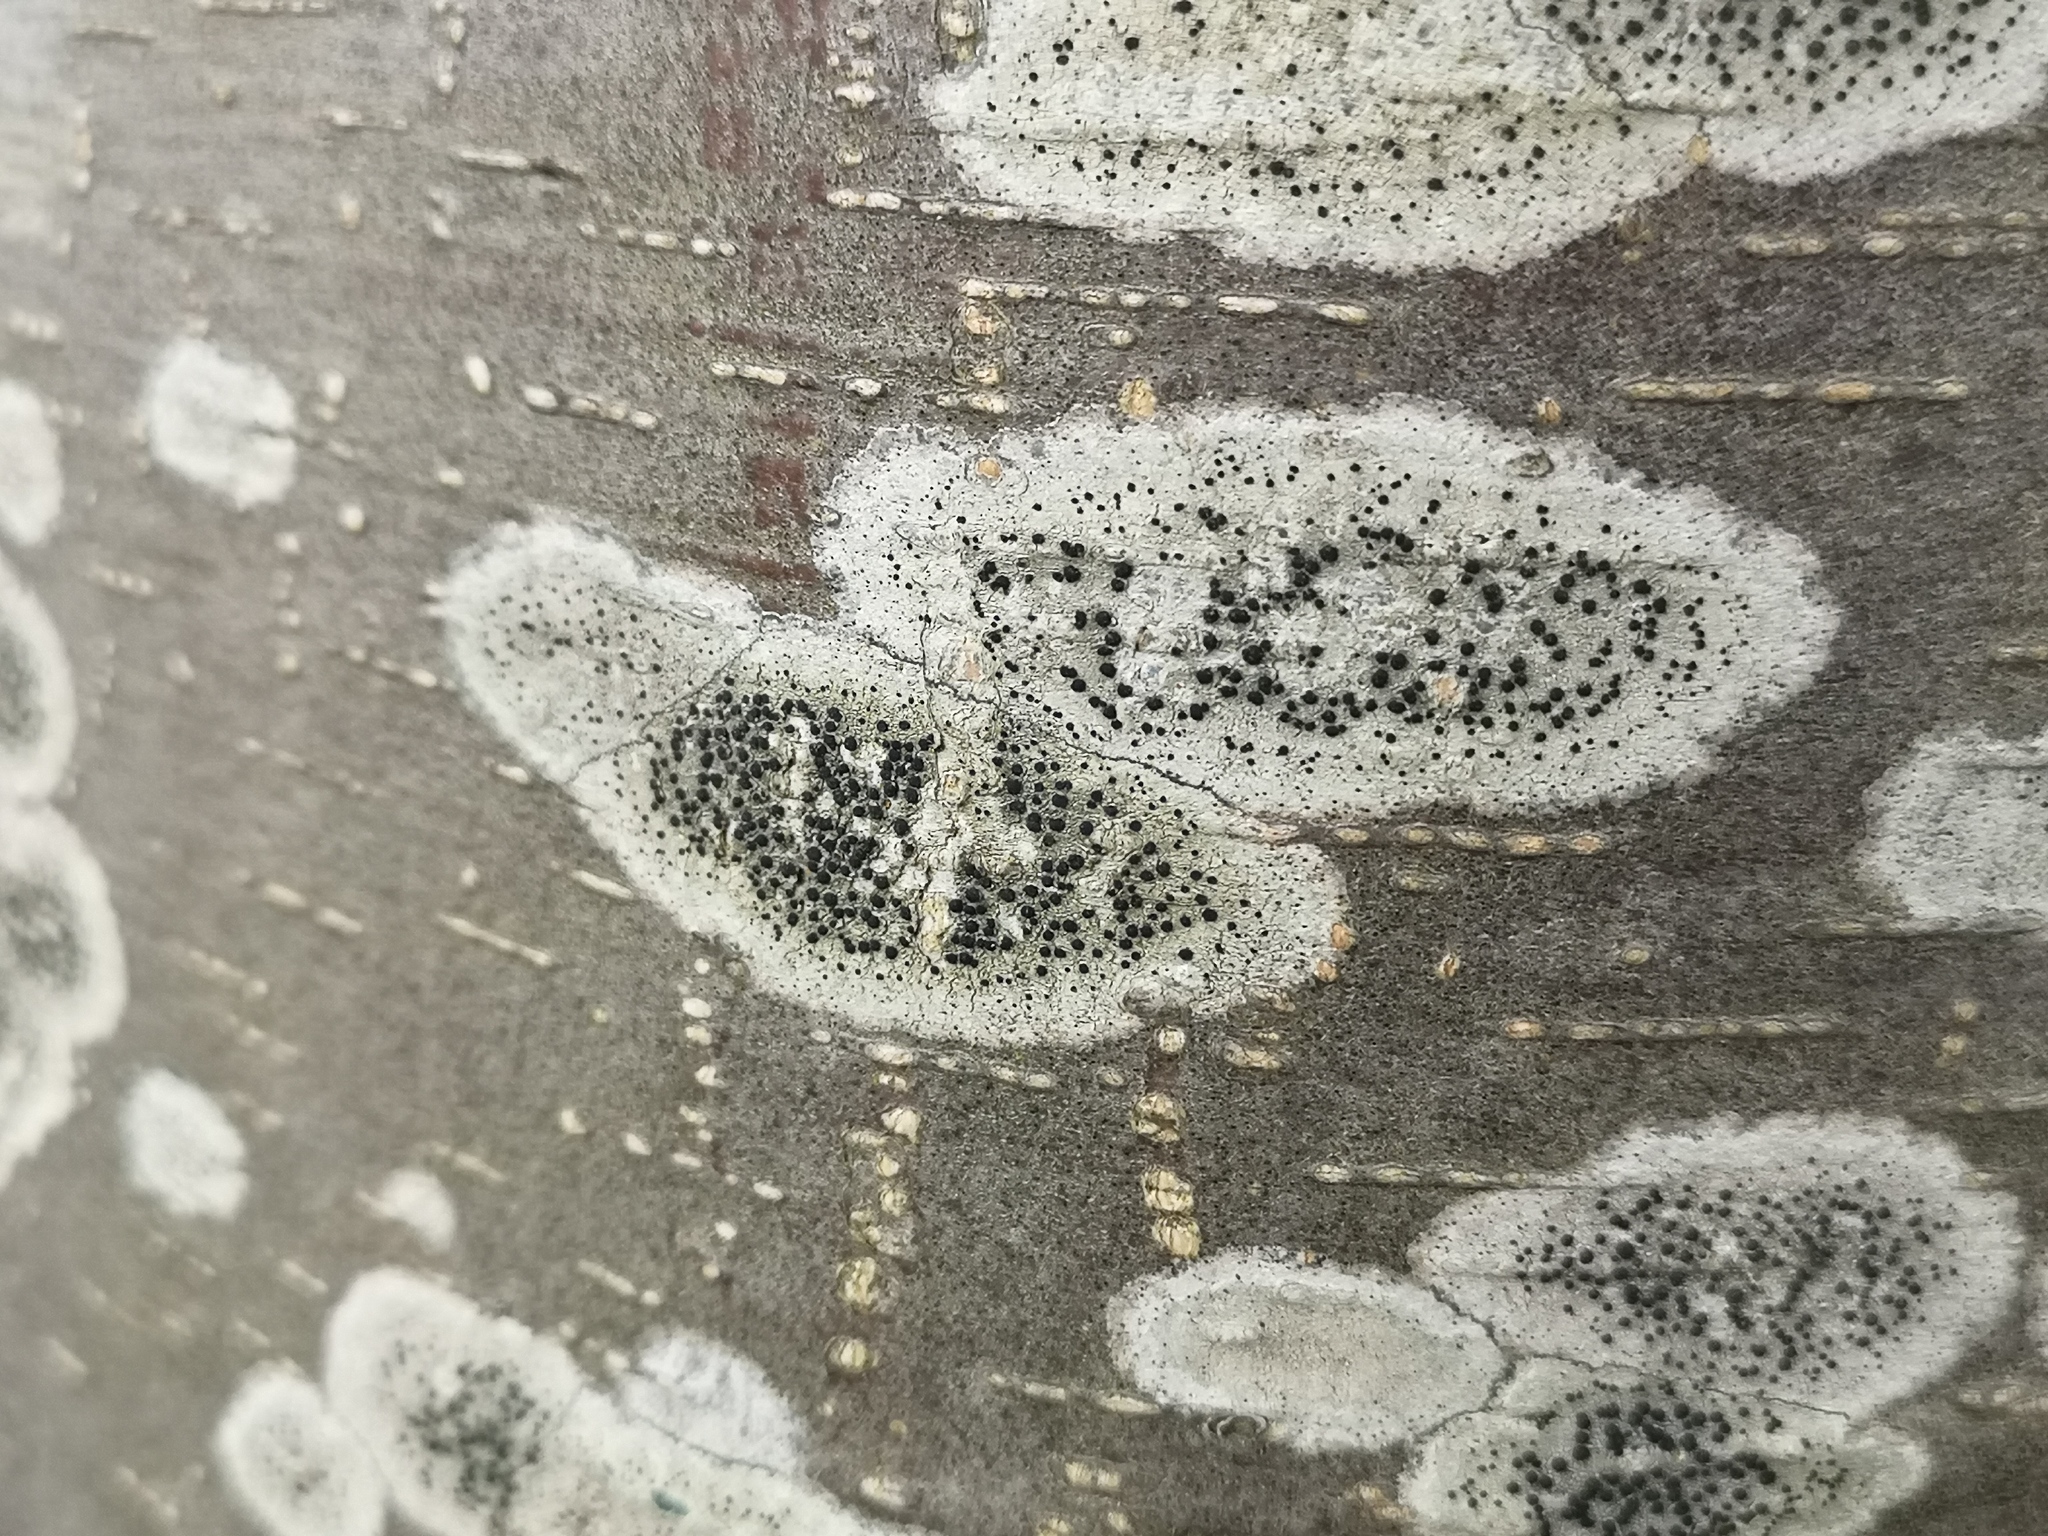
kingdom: Fungi
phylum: Ascomycota
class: Lecanoromycetes
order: Lecanorales
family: Lecanoraceae
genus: Lecidella
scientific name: Lecidella elaeochroma
